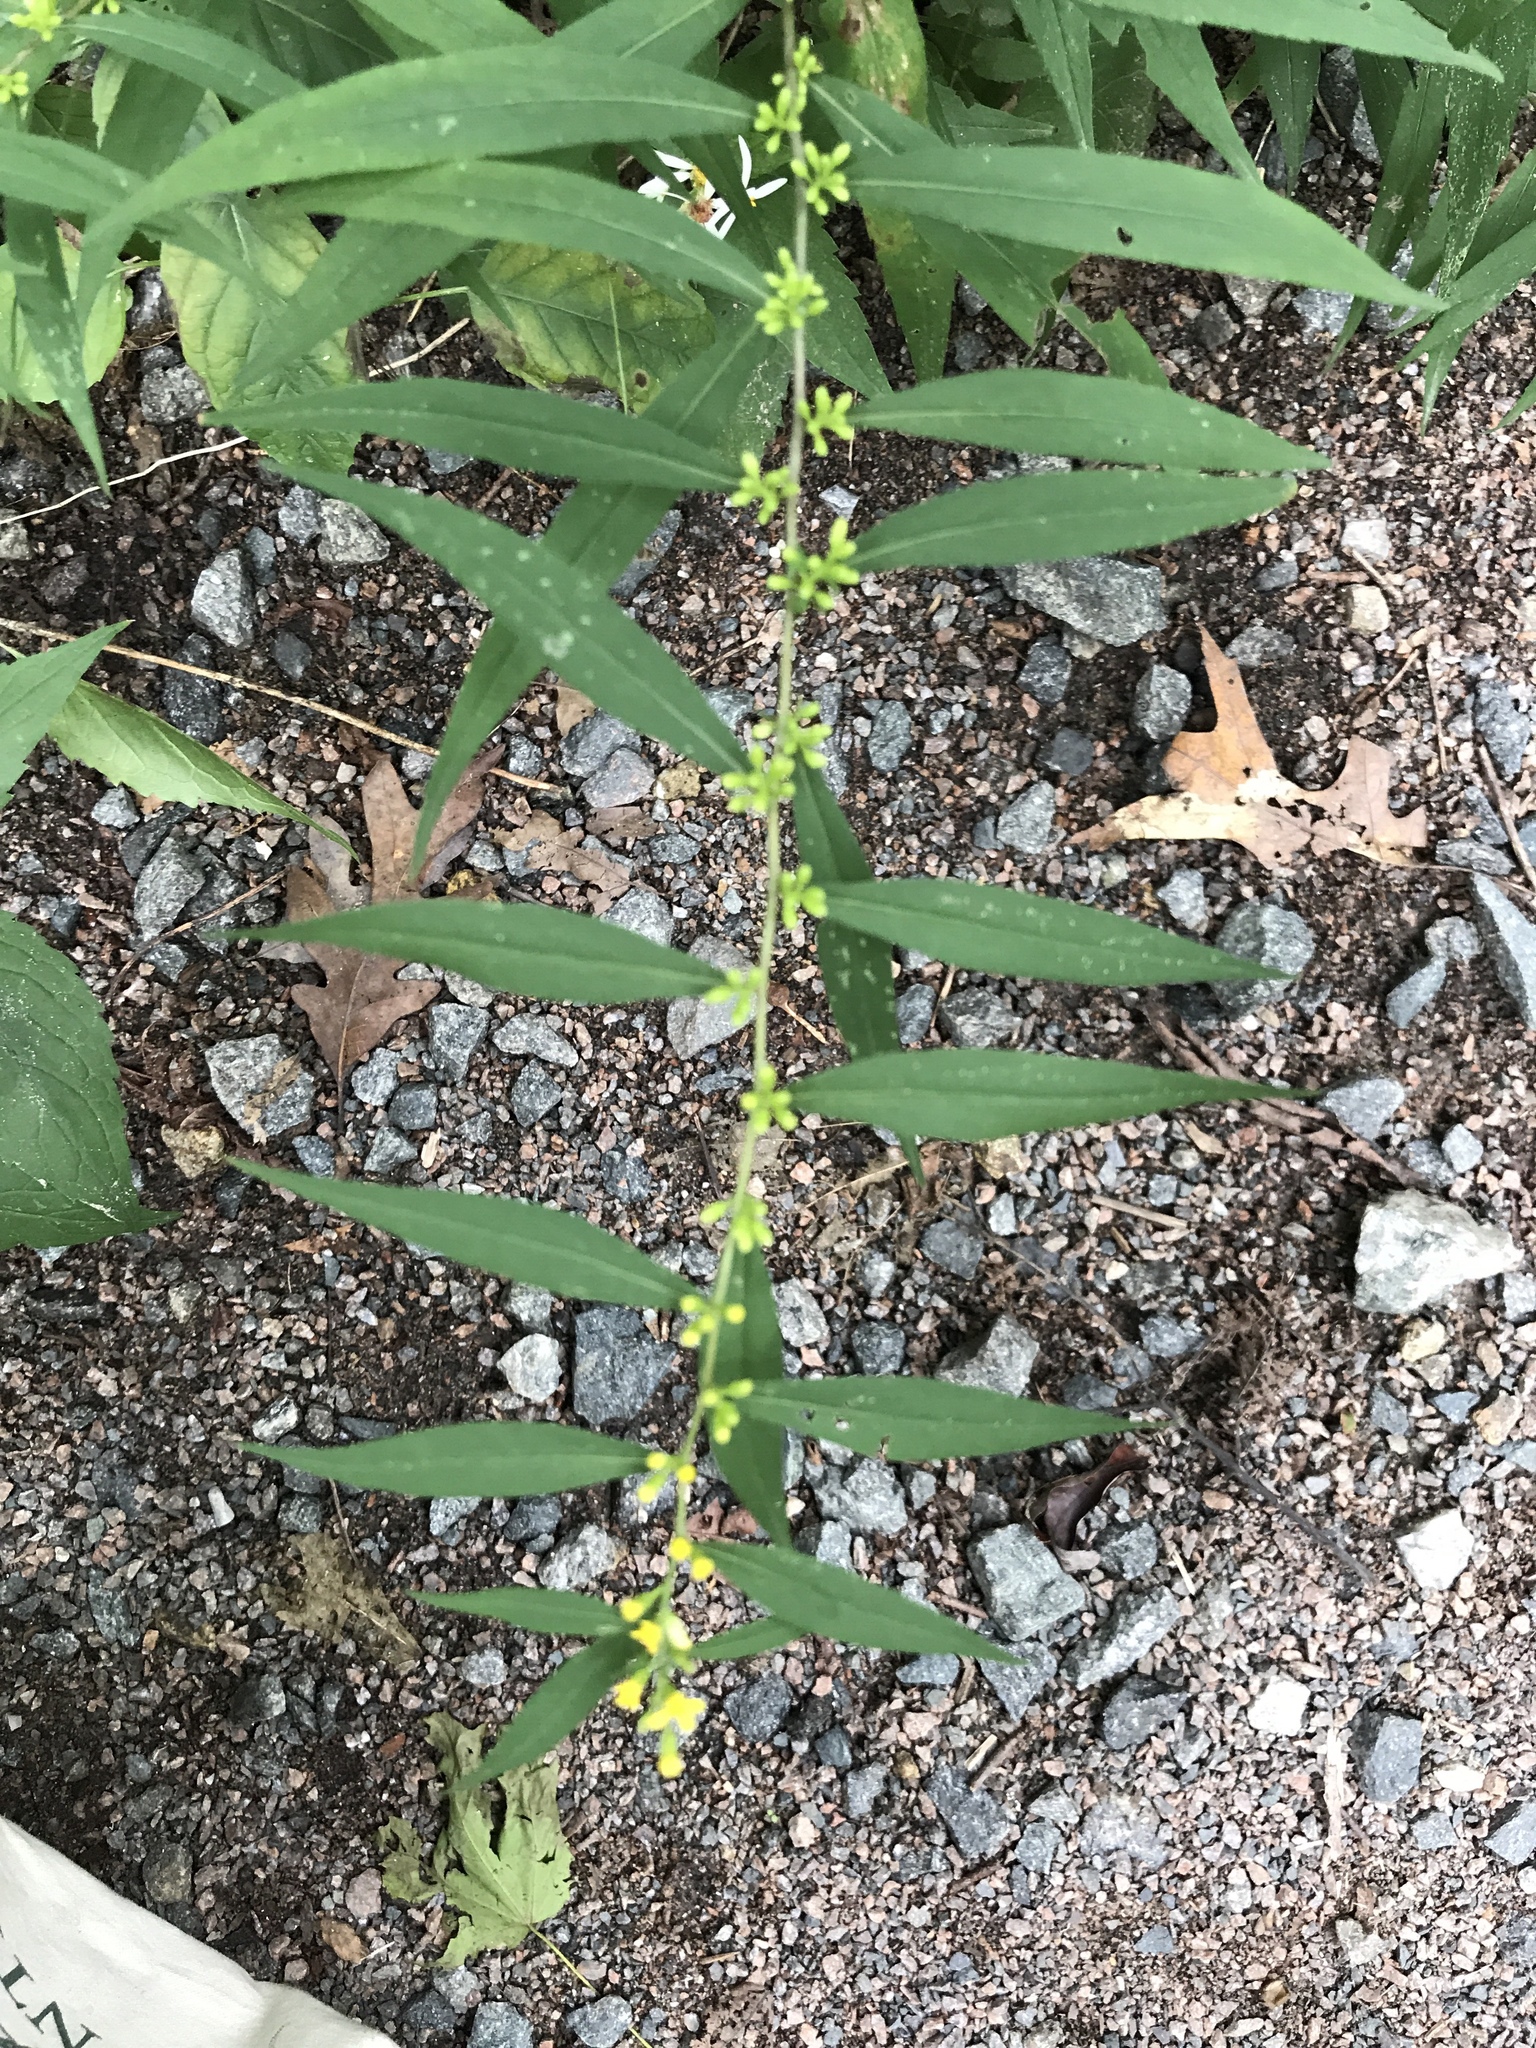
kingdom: Plantae
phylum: Tracheophyta
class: Magnoliopsida
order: Asterales
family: Asteraceae
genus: Solidago
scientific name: Solidago caesia
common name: Woodland goldenrod
